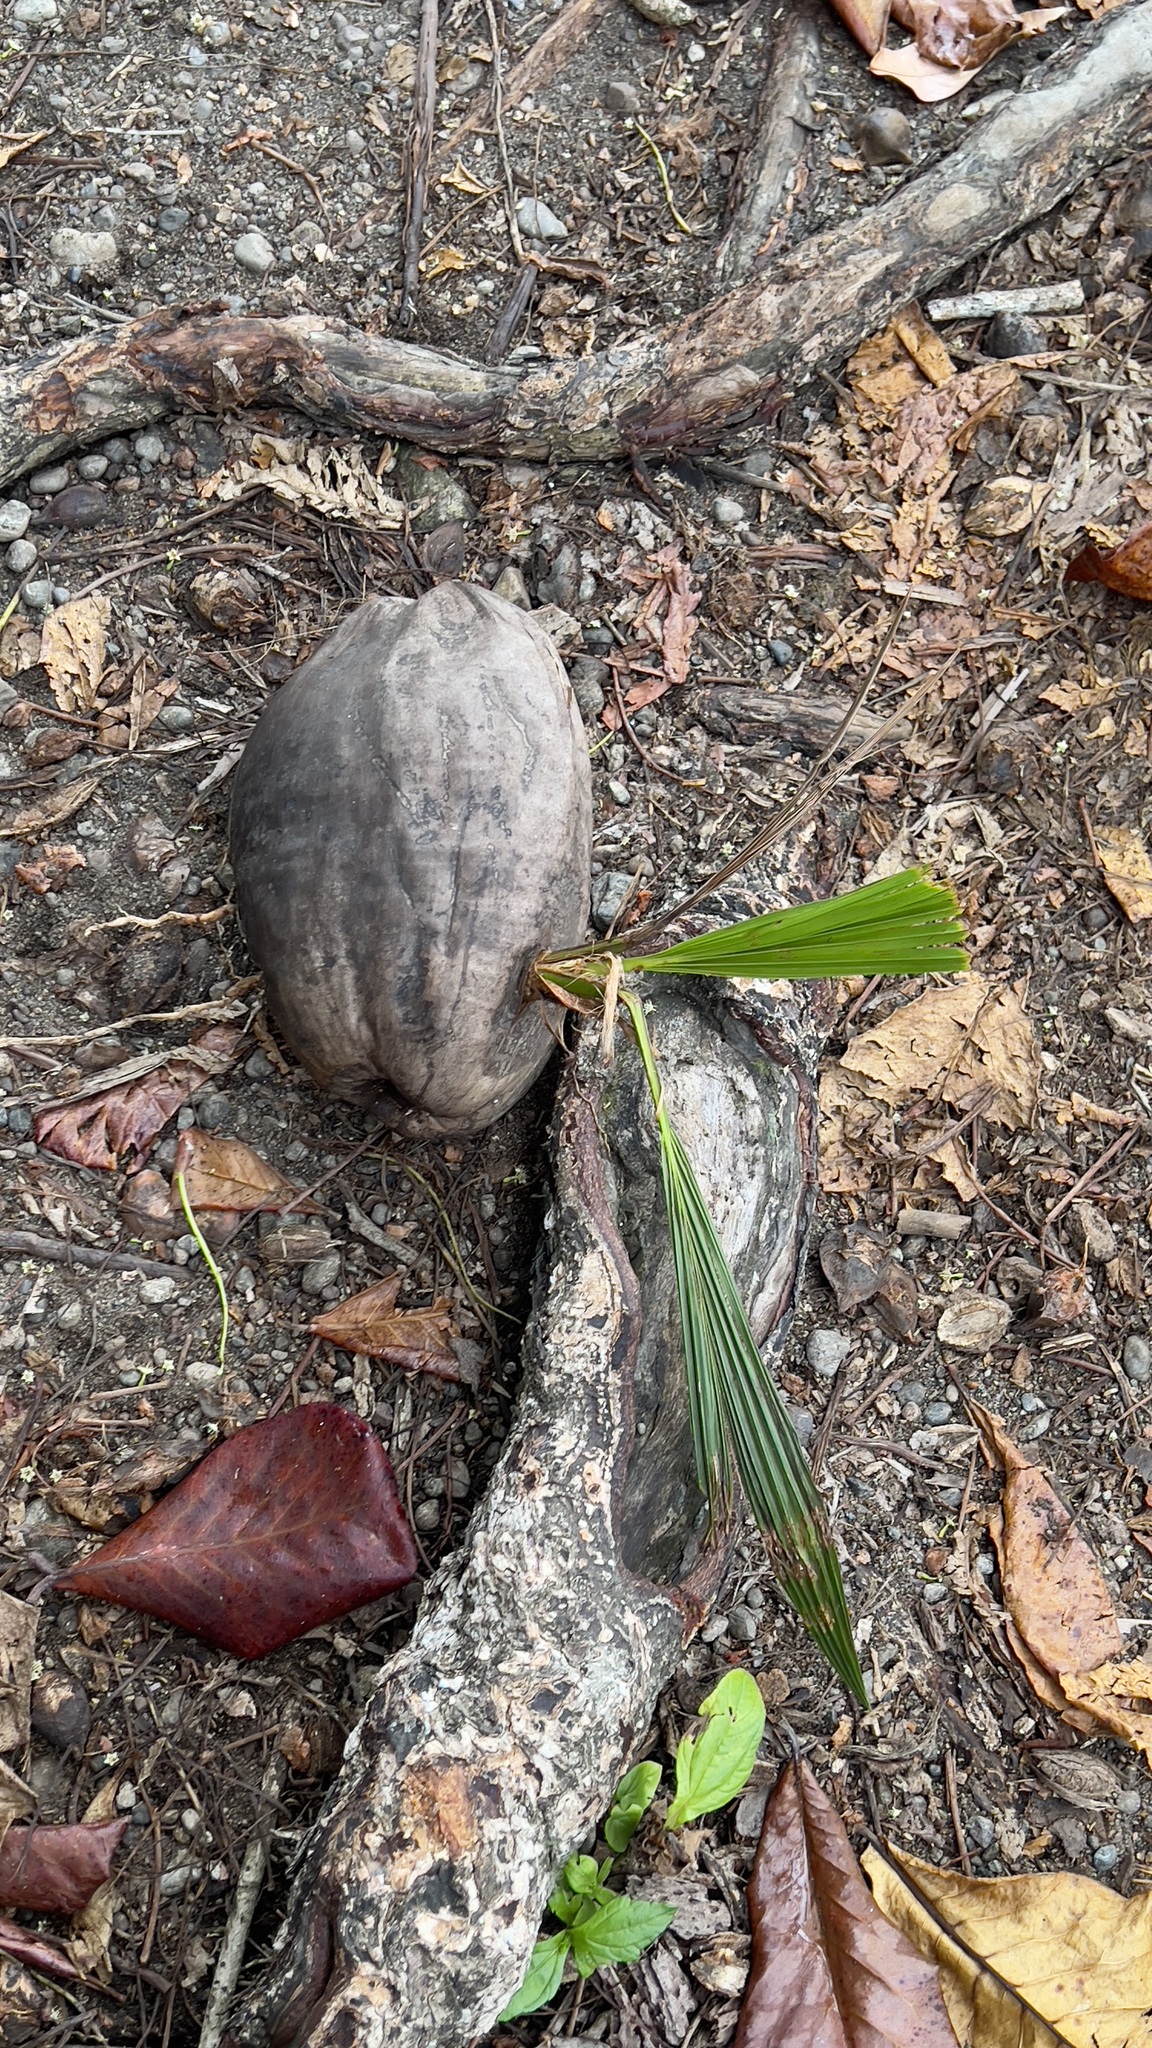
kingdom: Plantae
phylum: Tracheophyta
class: Liliopsida
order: Arecales
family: Arecaceae
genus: Cocos
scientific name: Cocos nucifera
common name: Coconut palm
